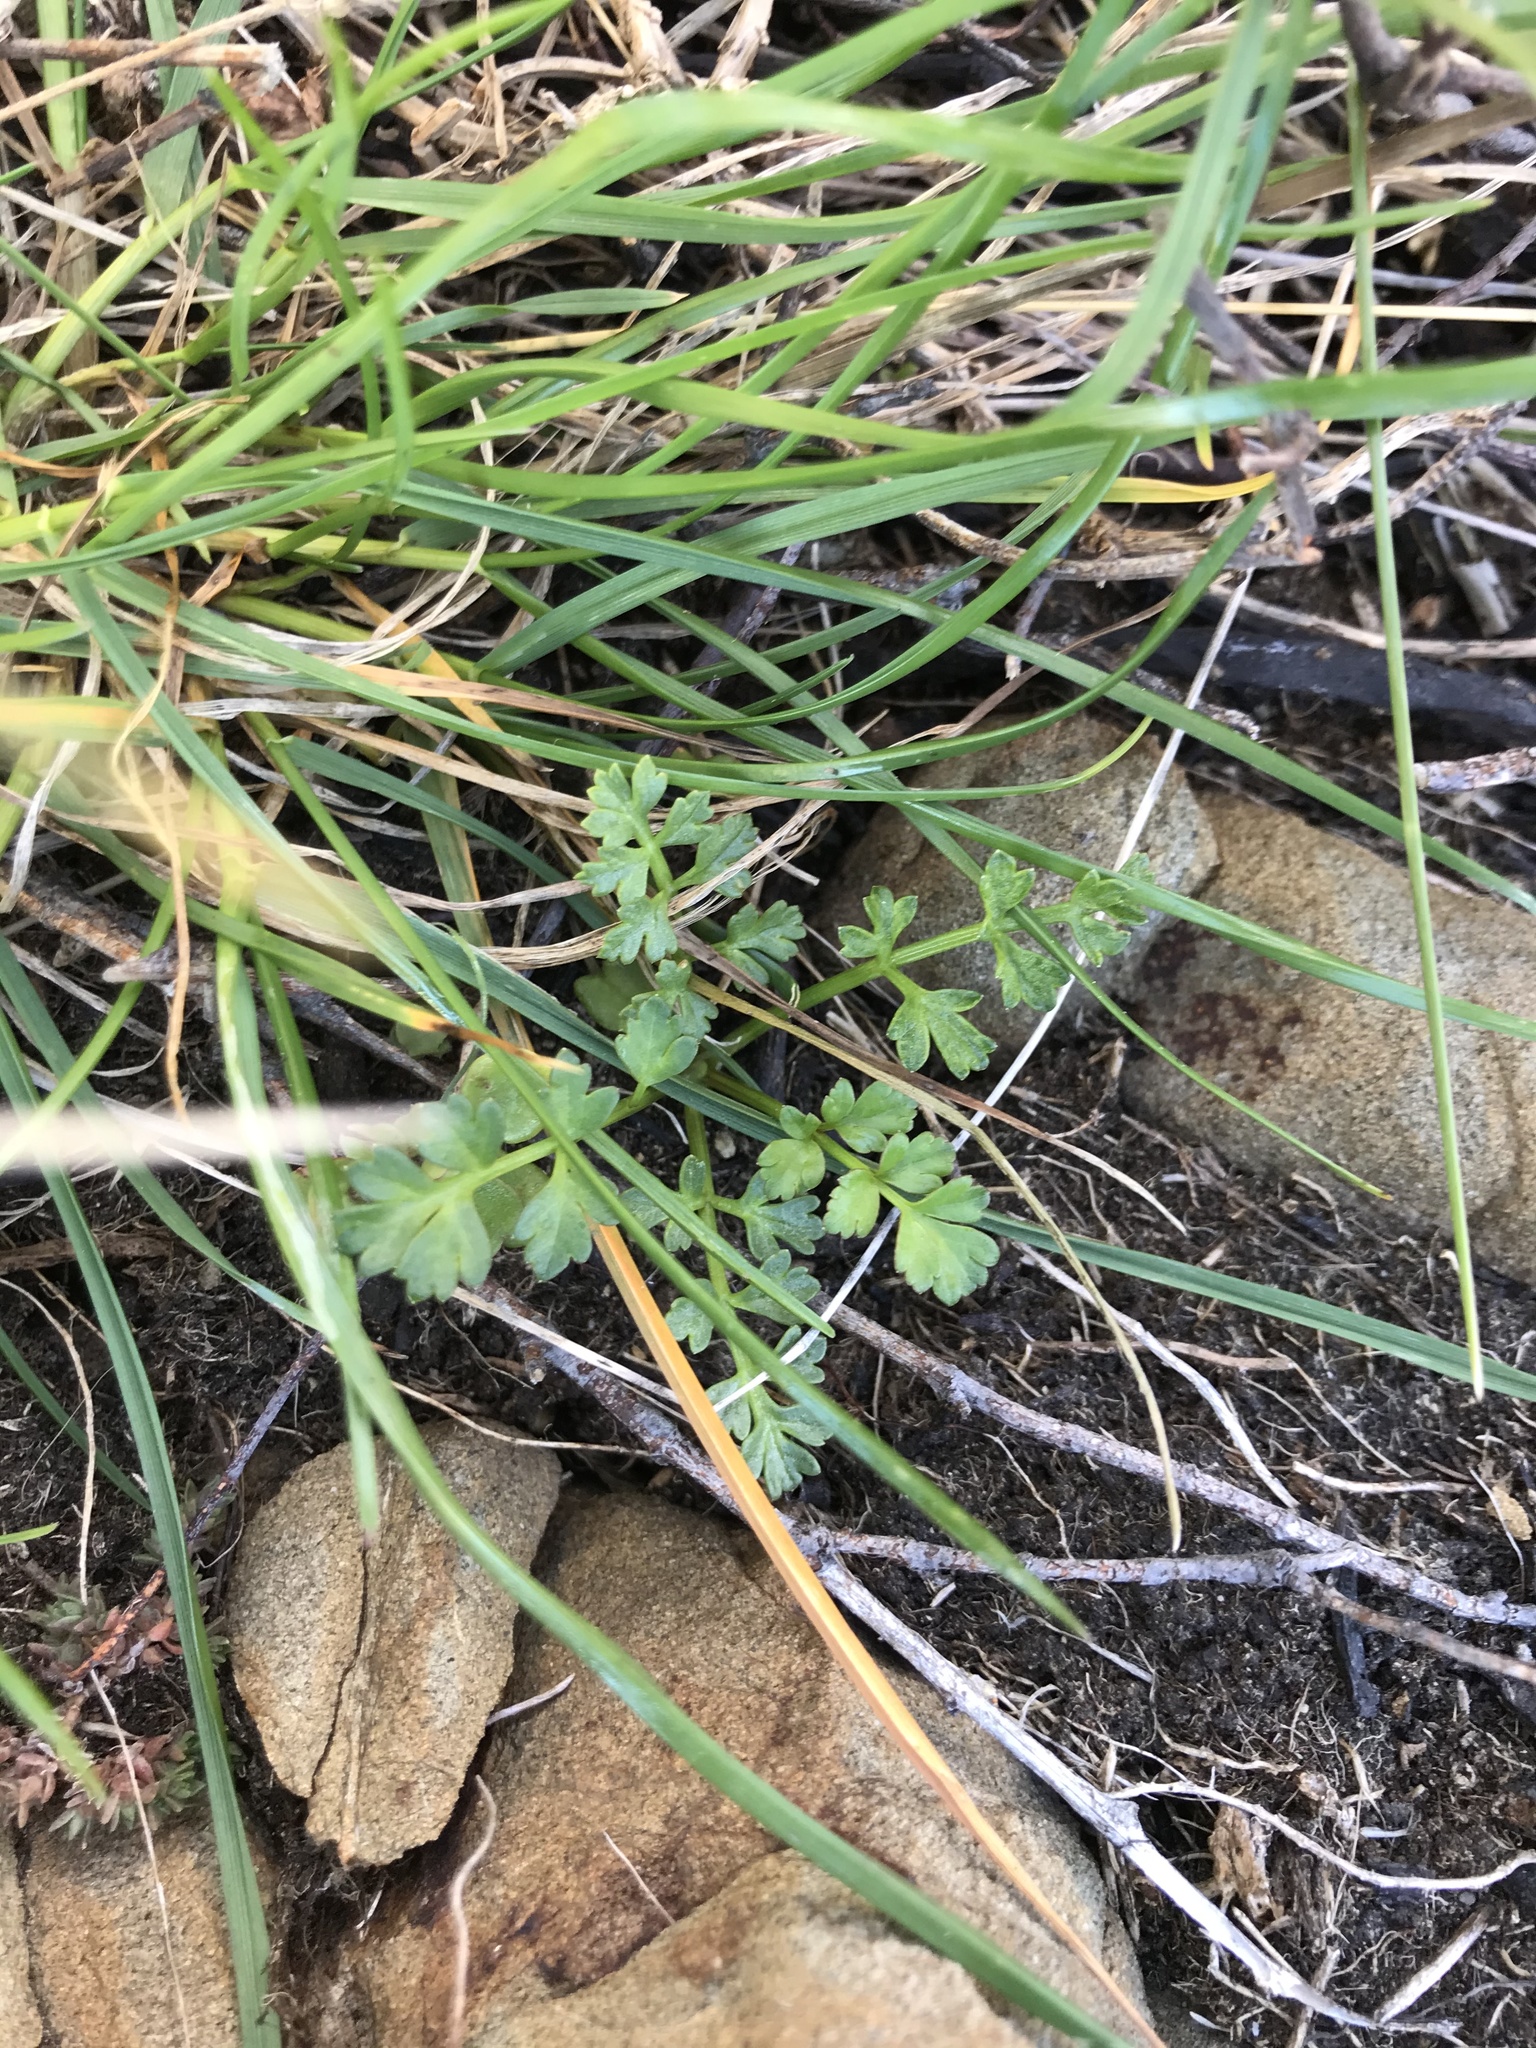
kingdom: Plantae
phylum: Tracheophyta
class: Magnoliopsida
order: Apiales
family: Apiaceae
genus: Apium
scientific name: Apium prostratum
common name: Prostrate marshwort
